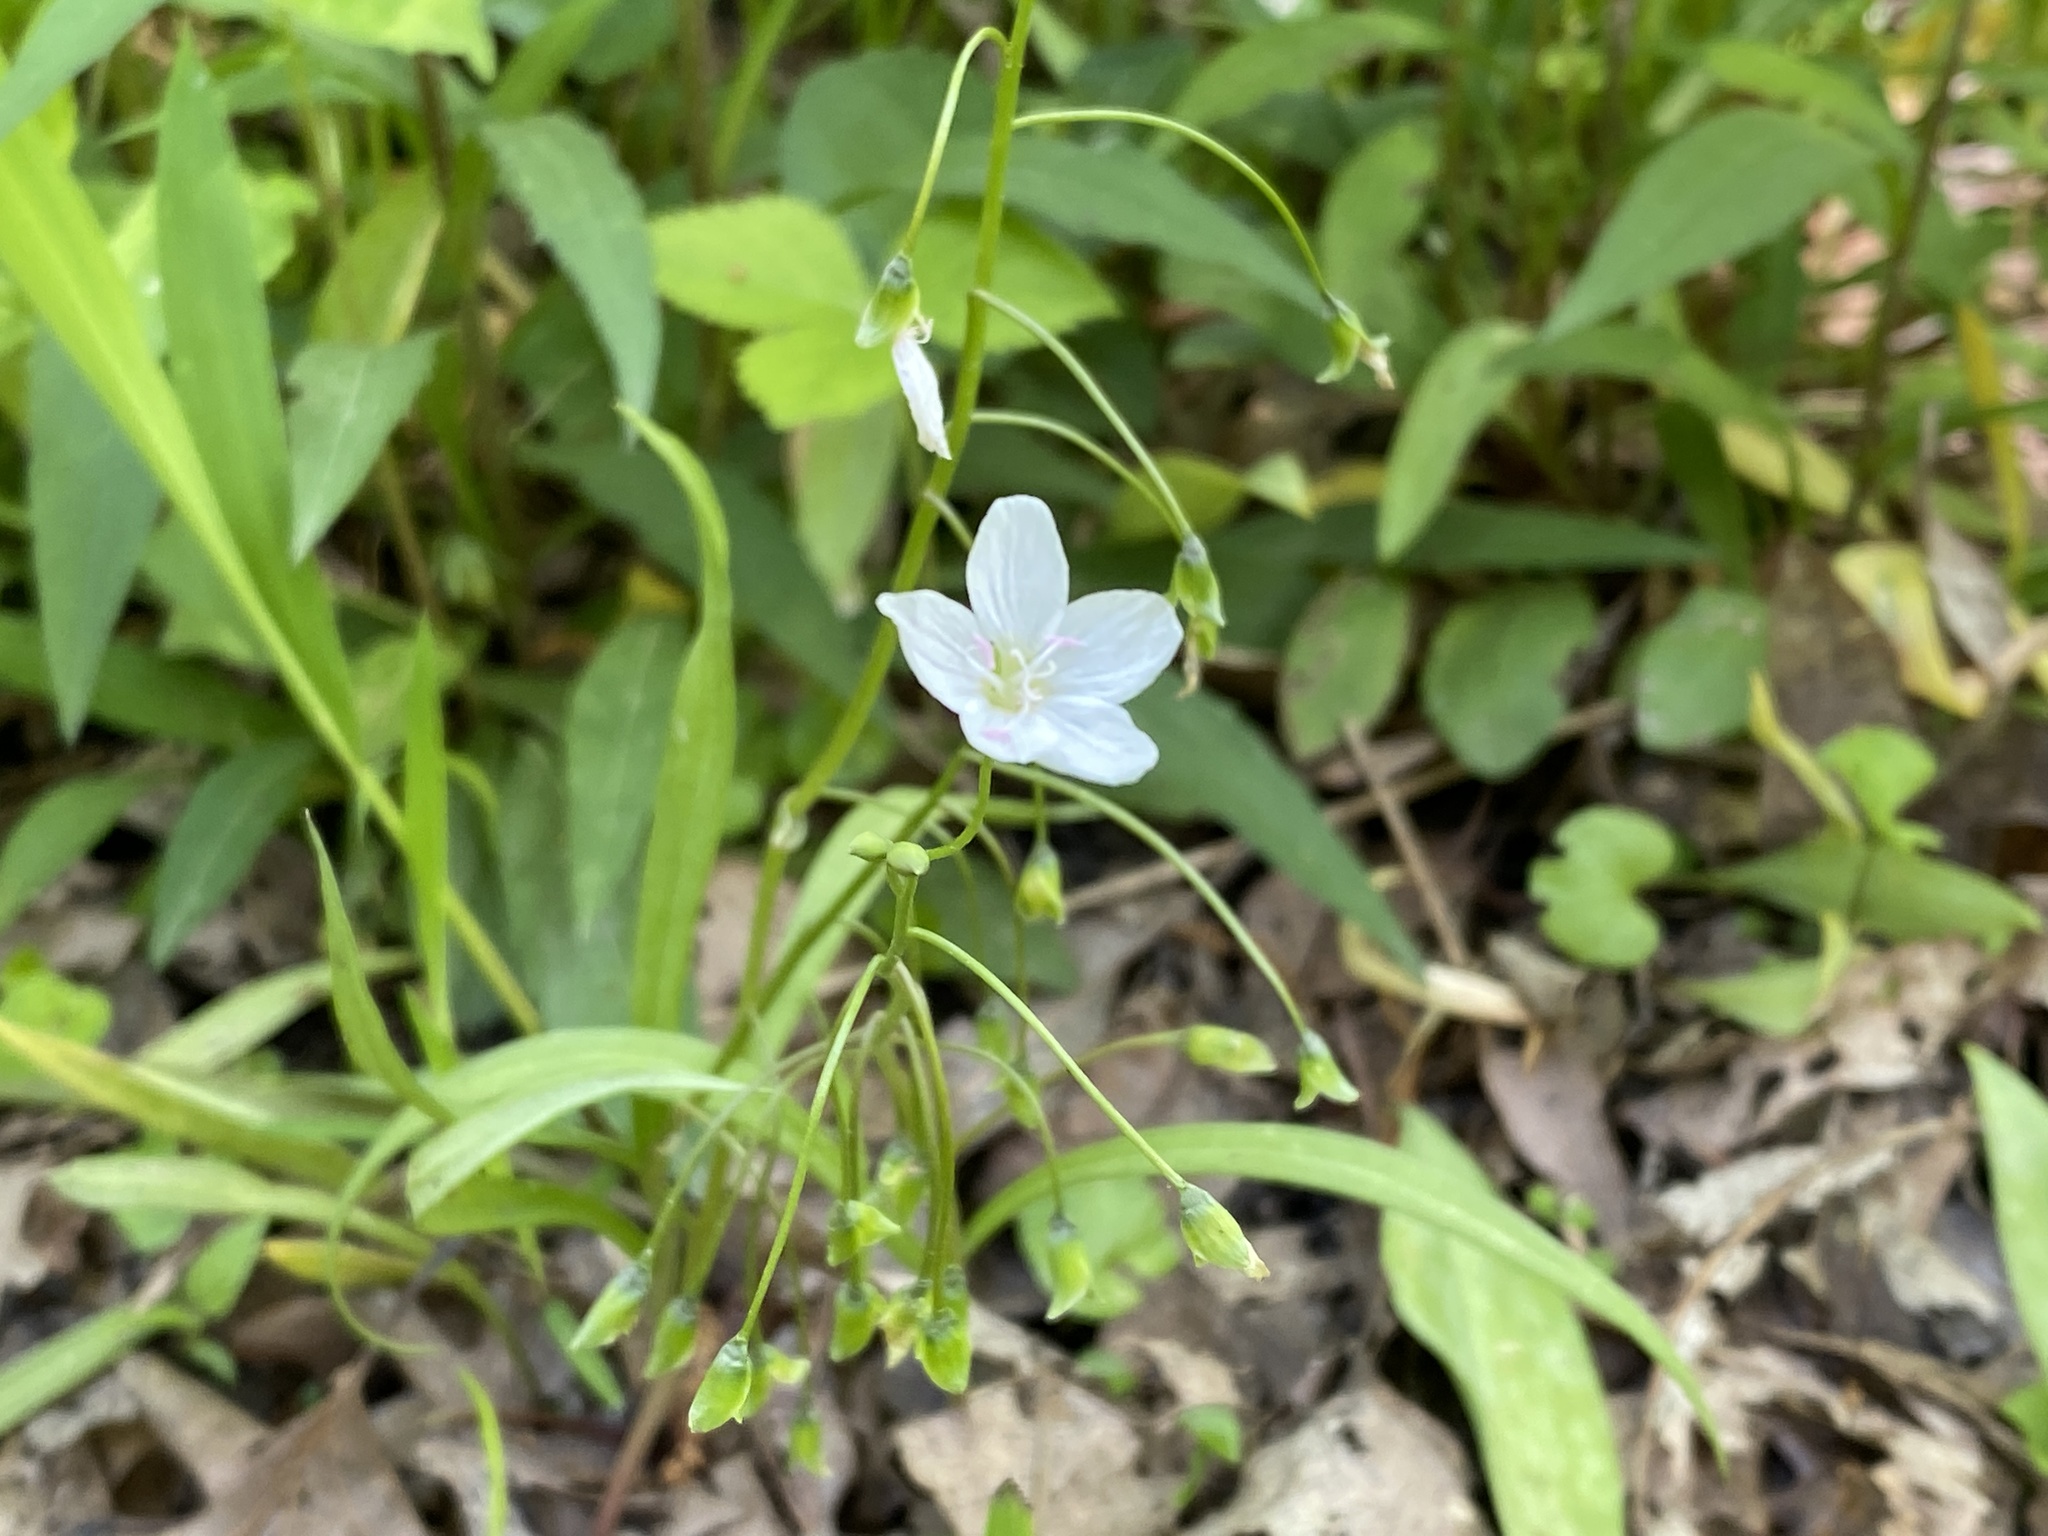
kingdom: Plantae
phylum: Tracheophyta
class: Magnoliopsida
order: Caryophyllales
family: Montiaceae
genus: Claytonia
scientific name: Claytonia virginica
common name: Virginia springbeauty
